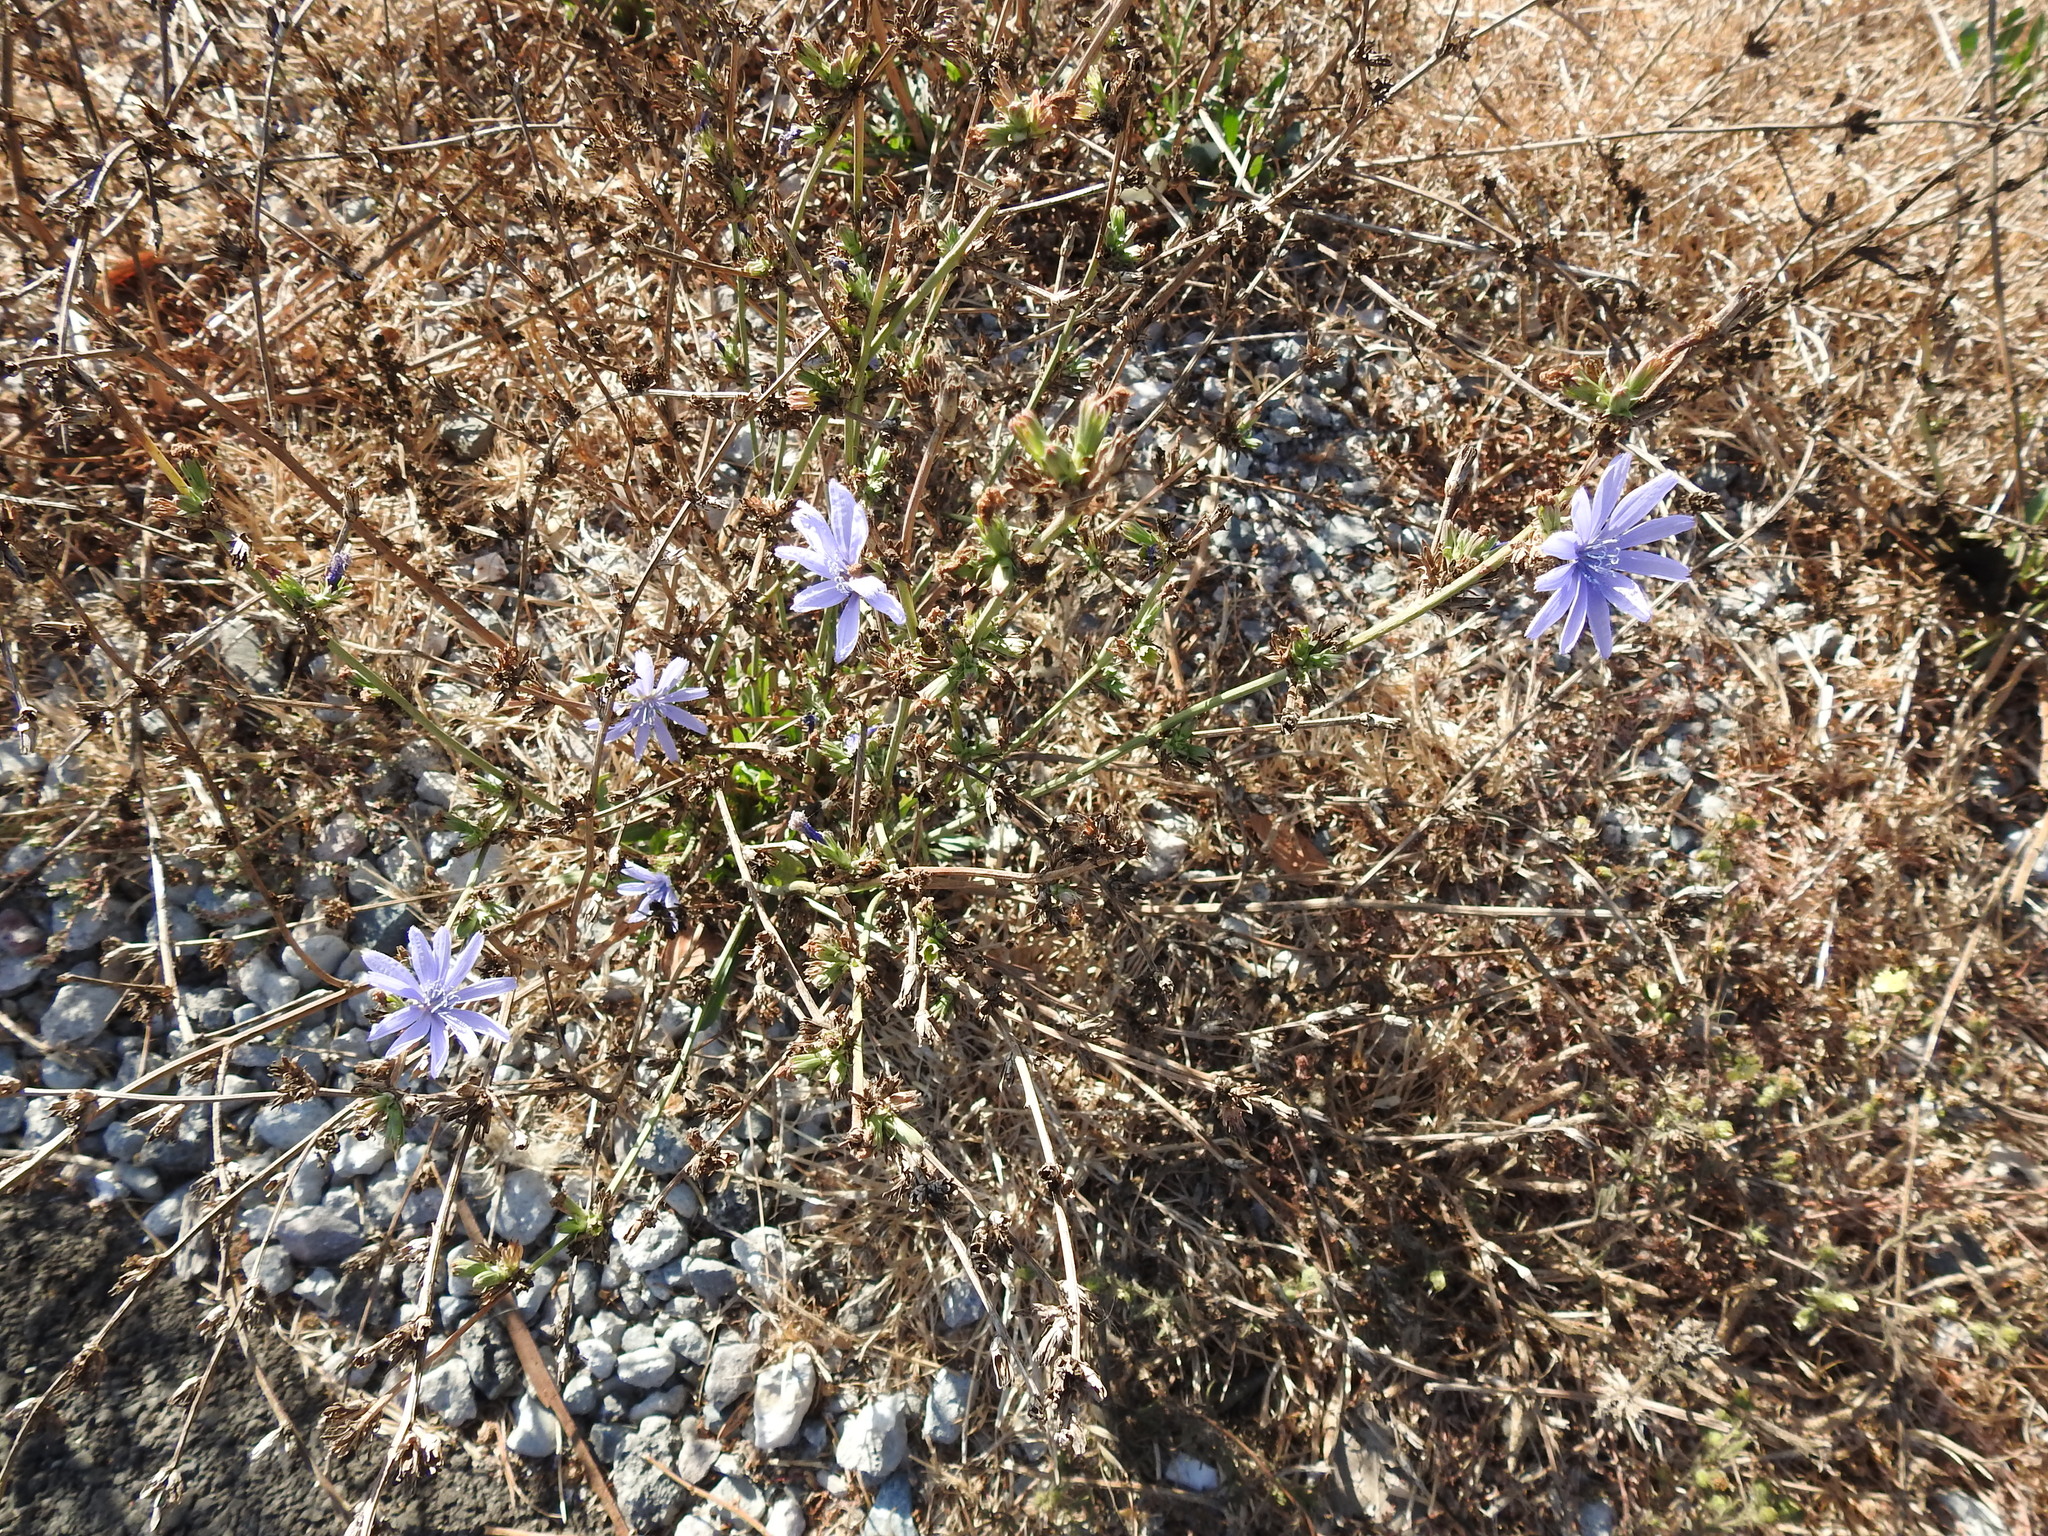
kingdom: Plantae
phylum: Tracheophyta
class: Magnoliopsida
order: Asterales
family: Asteraceae
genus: Cichorium
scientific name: Cichorium intybus
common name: Chicory
